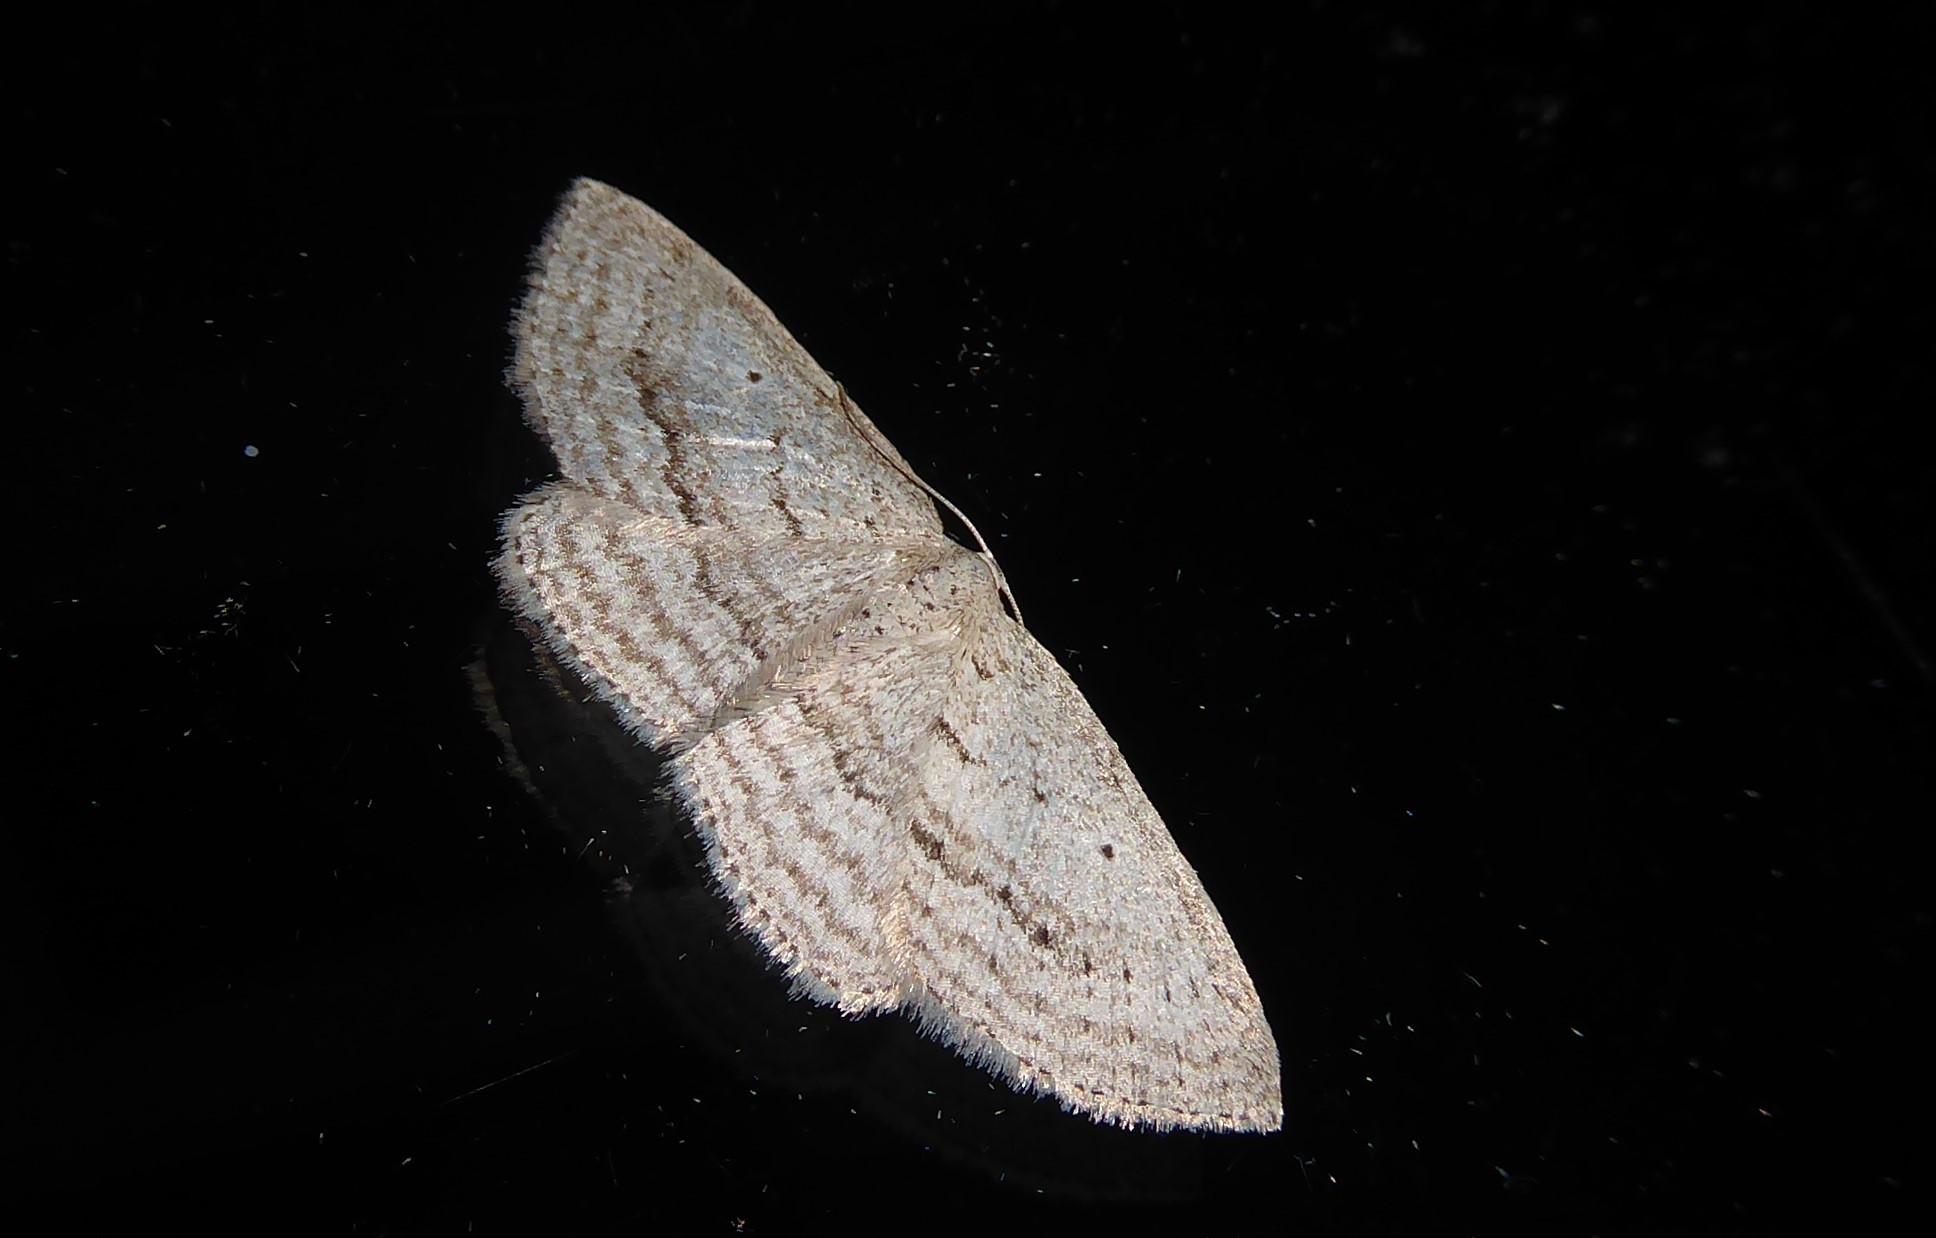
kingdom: Animalia
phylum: Arthropoda
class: Insecta
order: Lepidoptera
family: Geometridae
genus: Poecilasthena
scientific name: Poecilasthena schistaria
